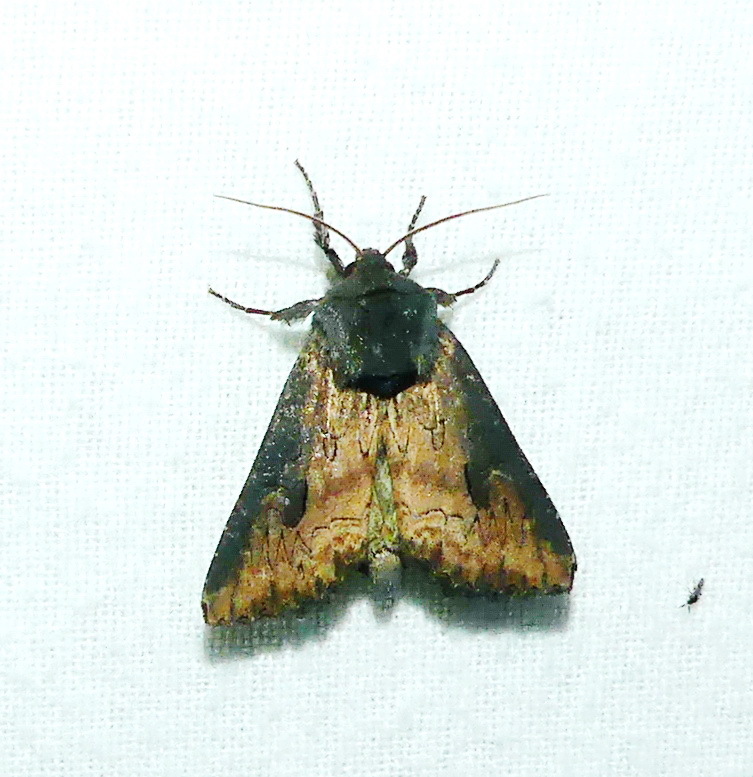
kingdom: Animalia
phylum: Arthropoda
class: Insecta
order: Lepidoptera
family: Noctuidae
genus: Macronoctua
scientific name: Macronoctua onusta
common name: Iris borer
